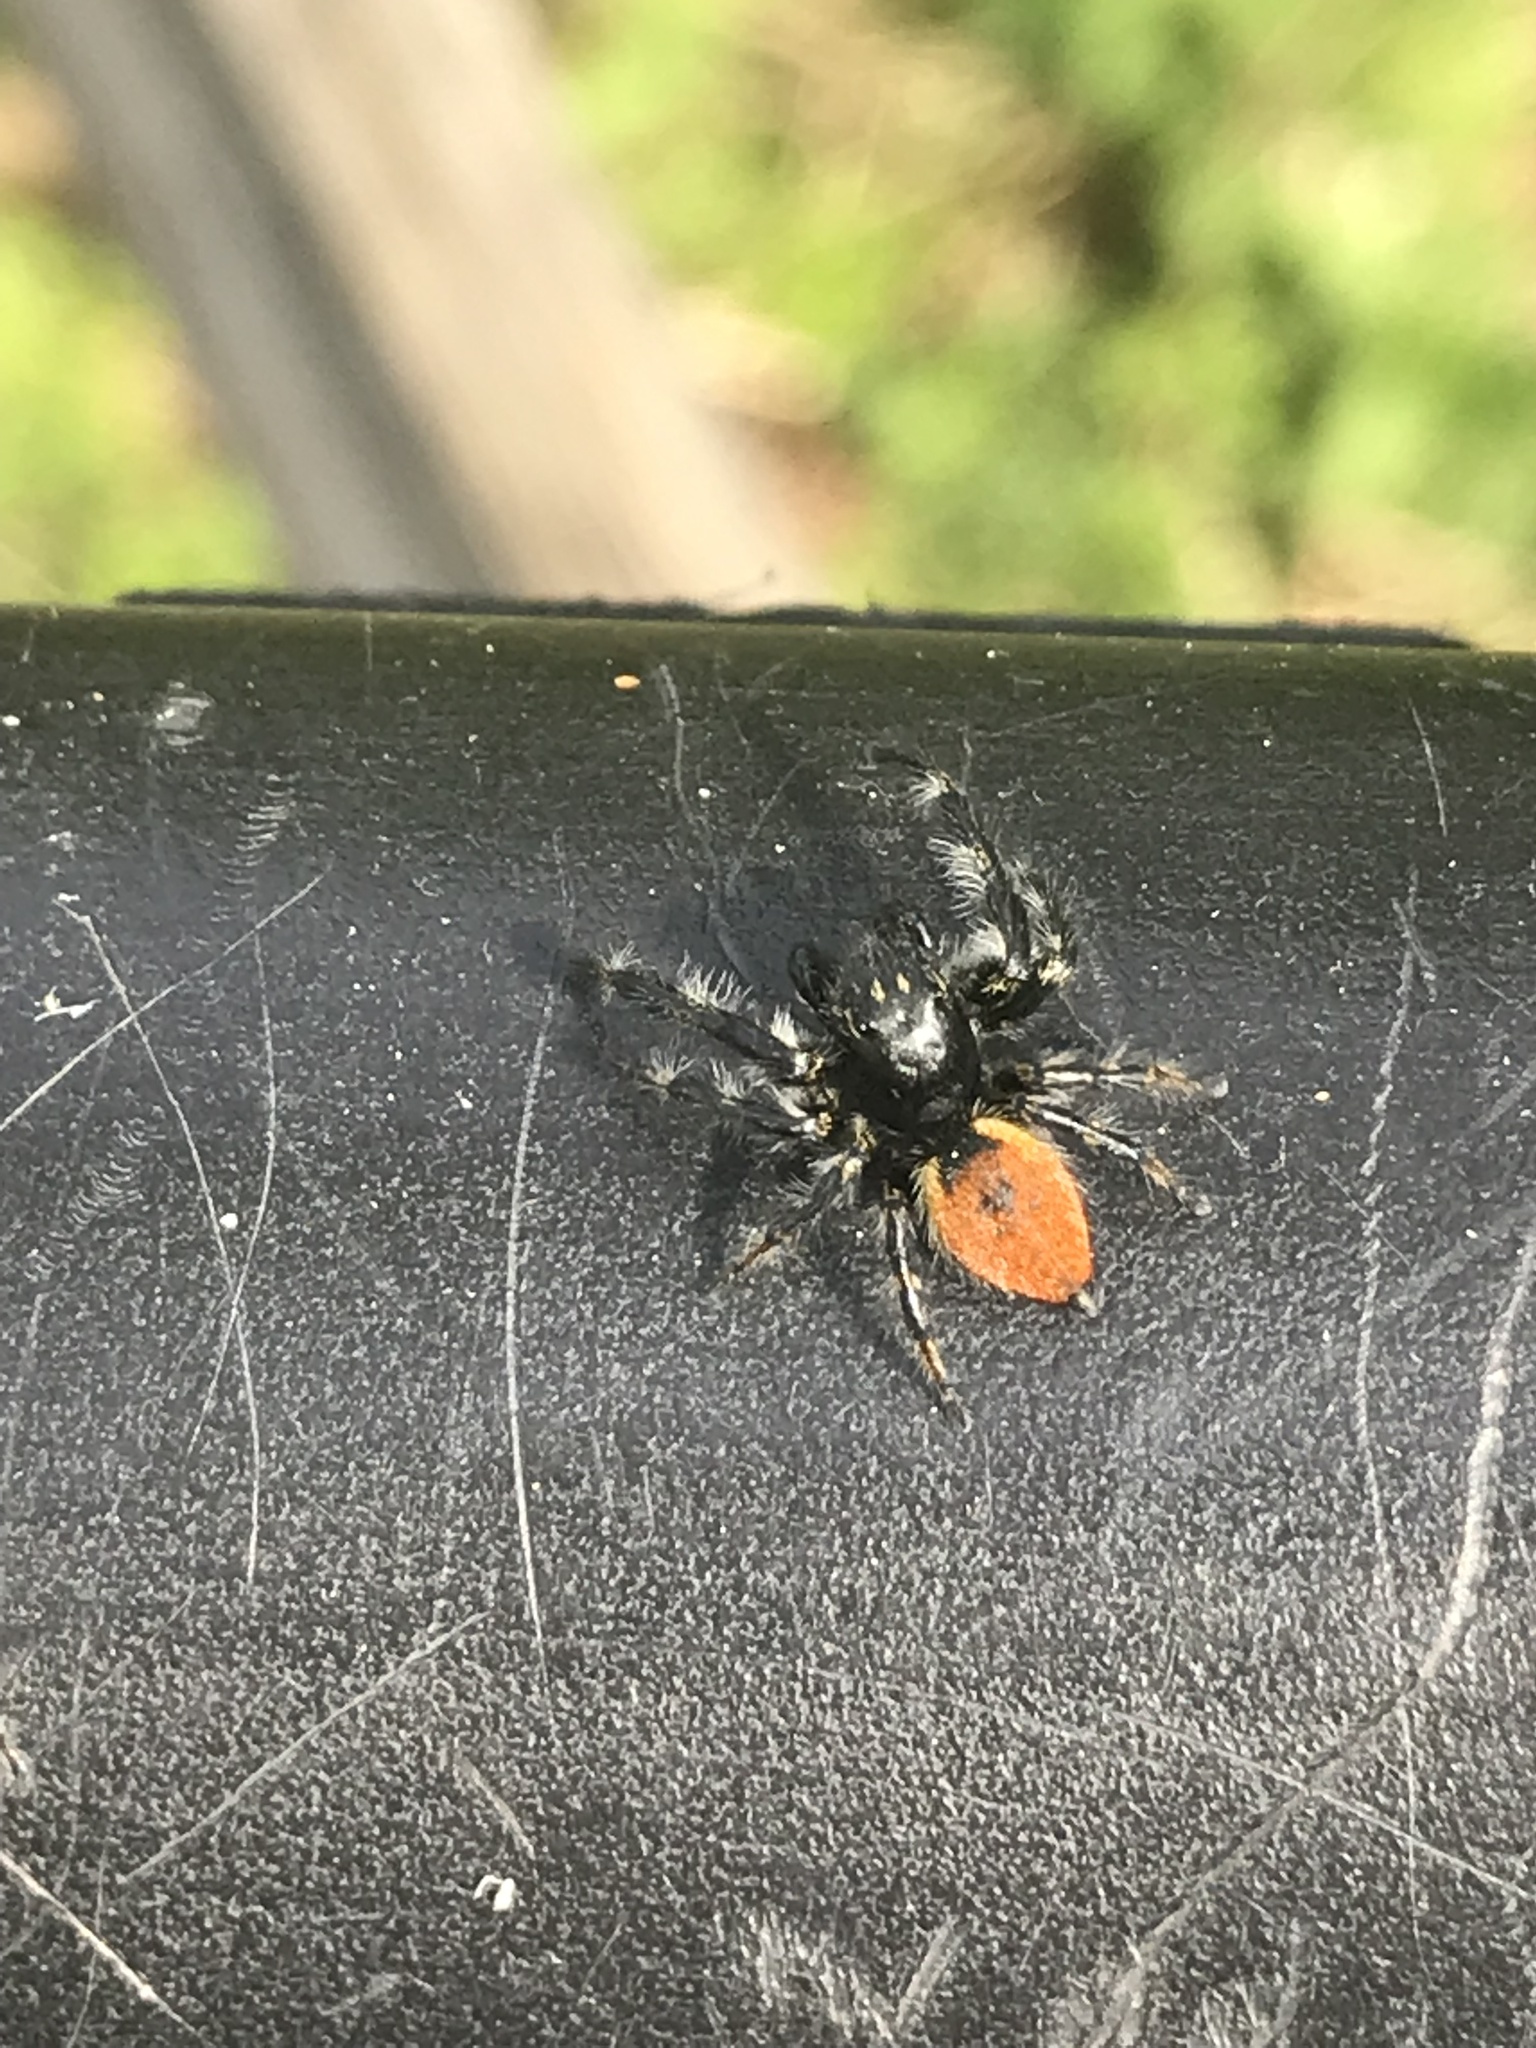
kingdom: Animalia
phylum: Arthropoda
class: Arachnida
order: Araneae
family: Salticidae
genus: Carrhotus
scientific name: Carrhotus xanthogramma
